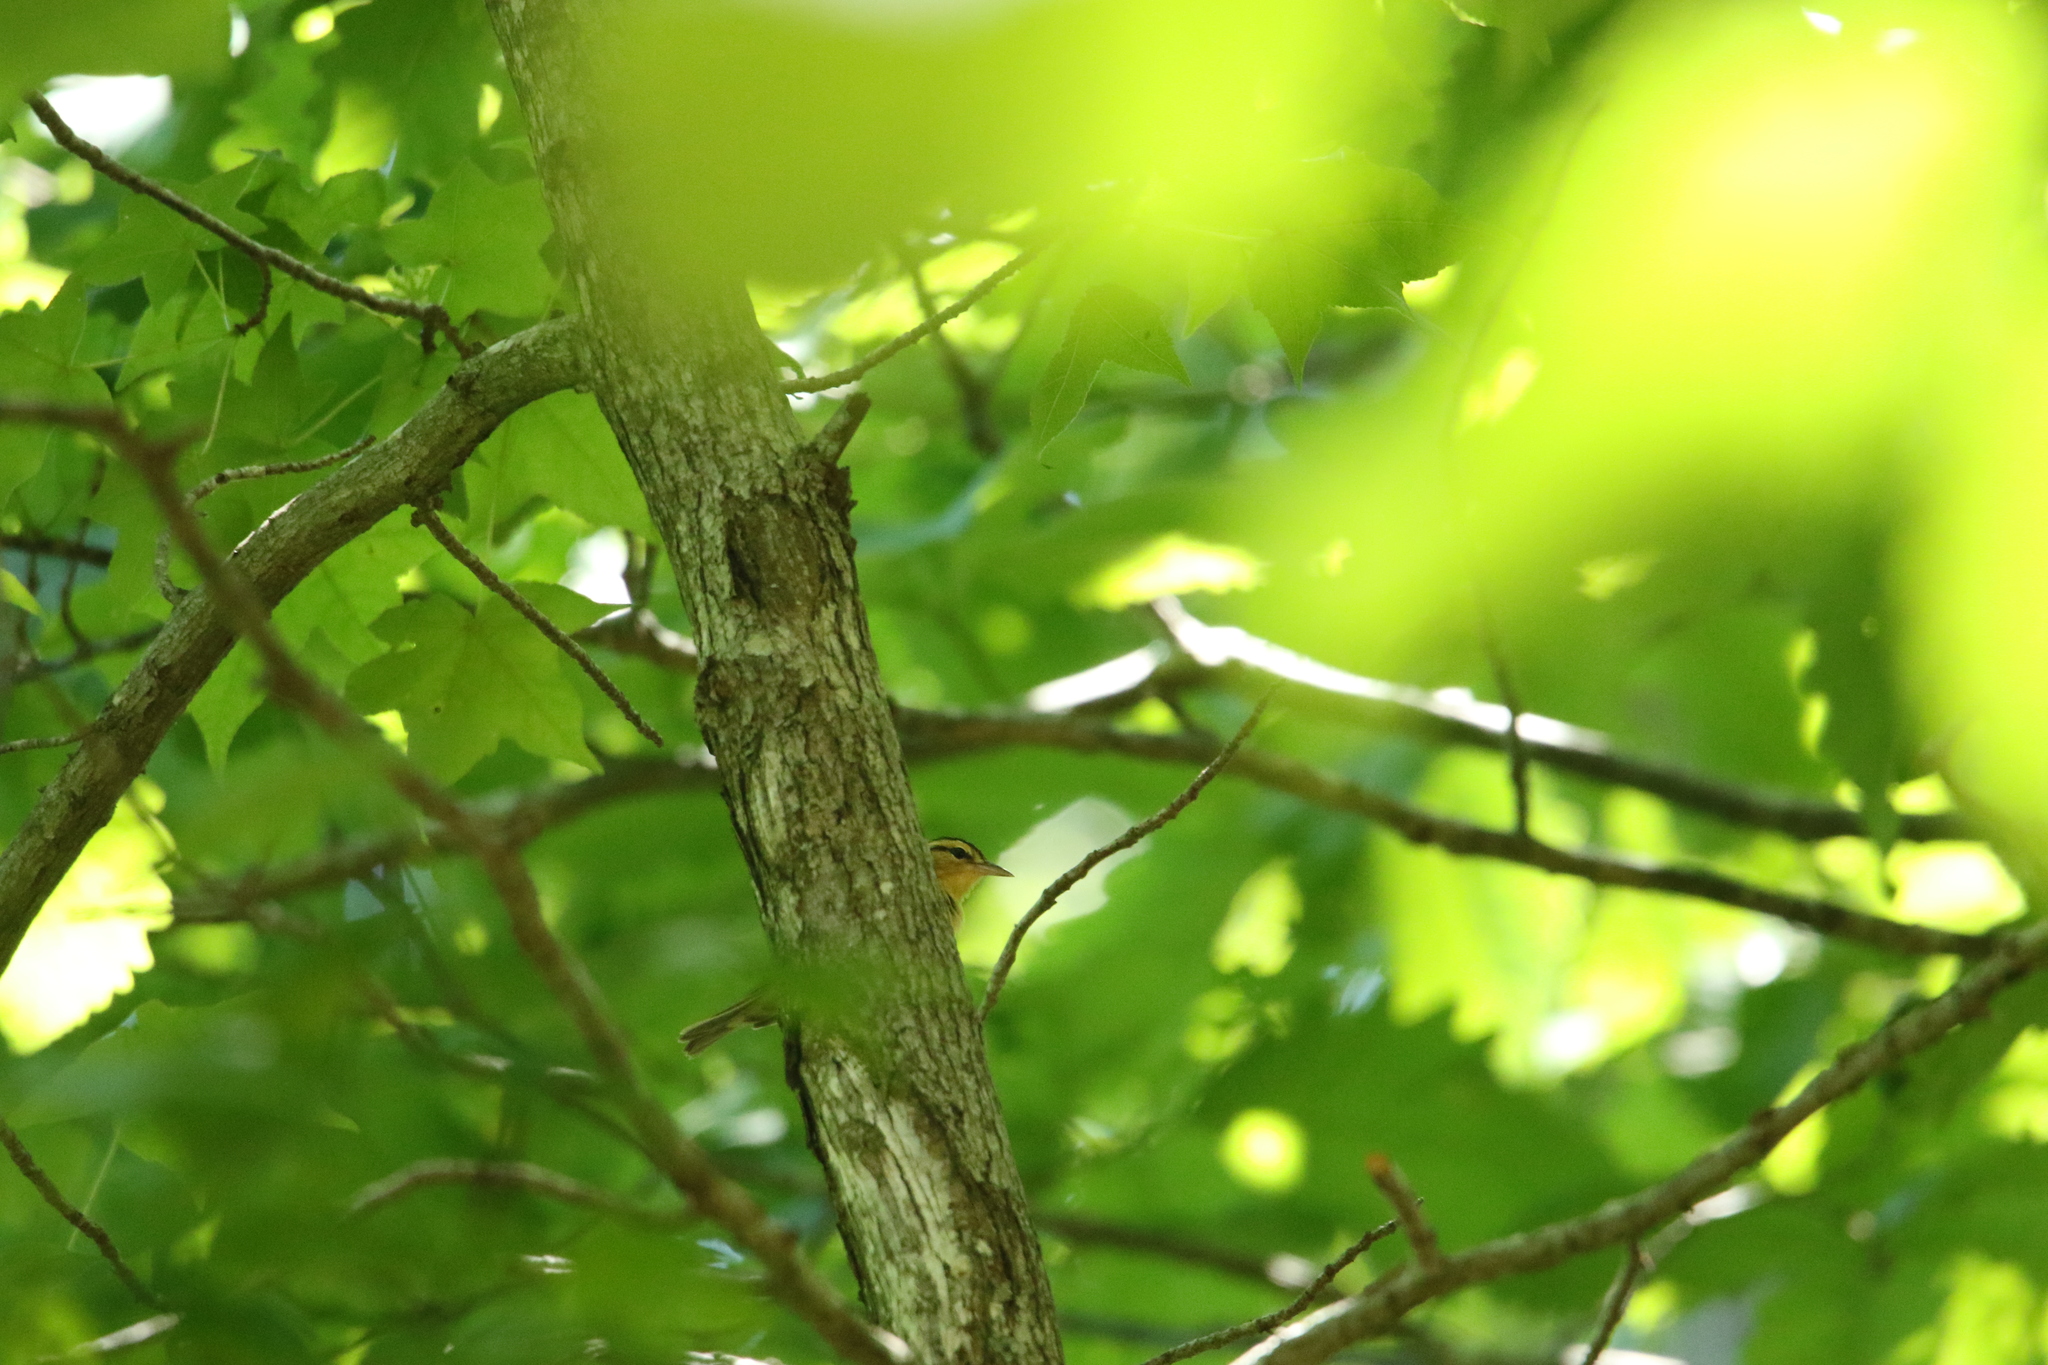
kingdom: Animalia
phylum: Chordata
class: Aves
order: Passeriformes
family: Parulidae
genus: Helmitheros
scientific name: Helmitheros vermivorum
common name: Worm-eating warbler
